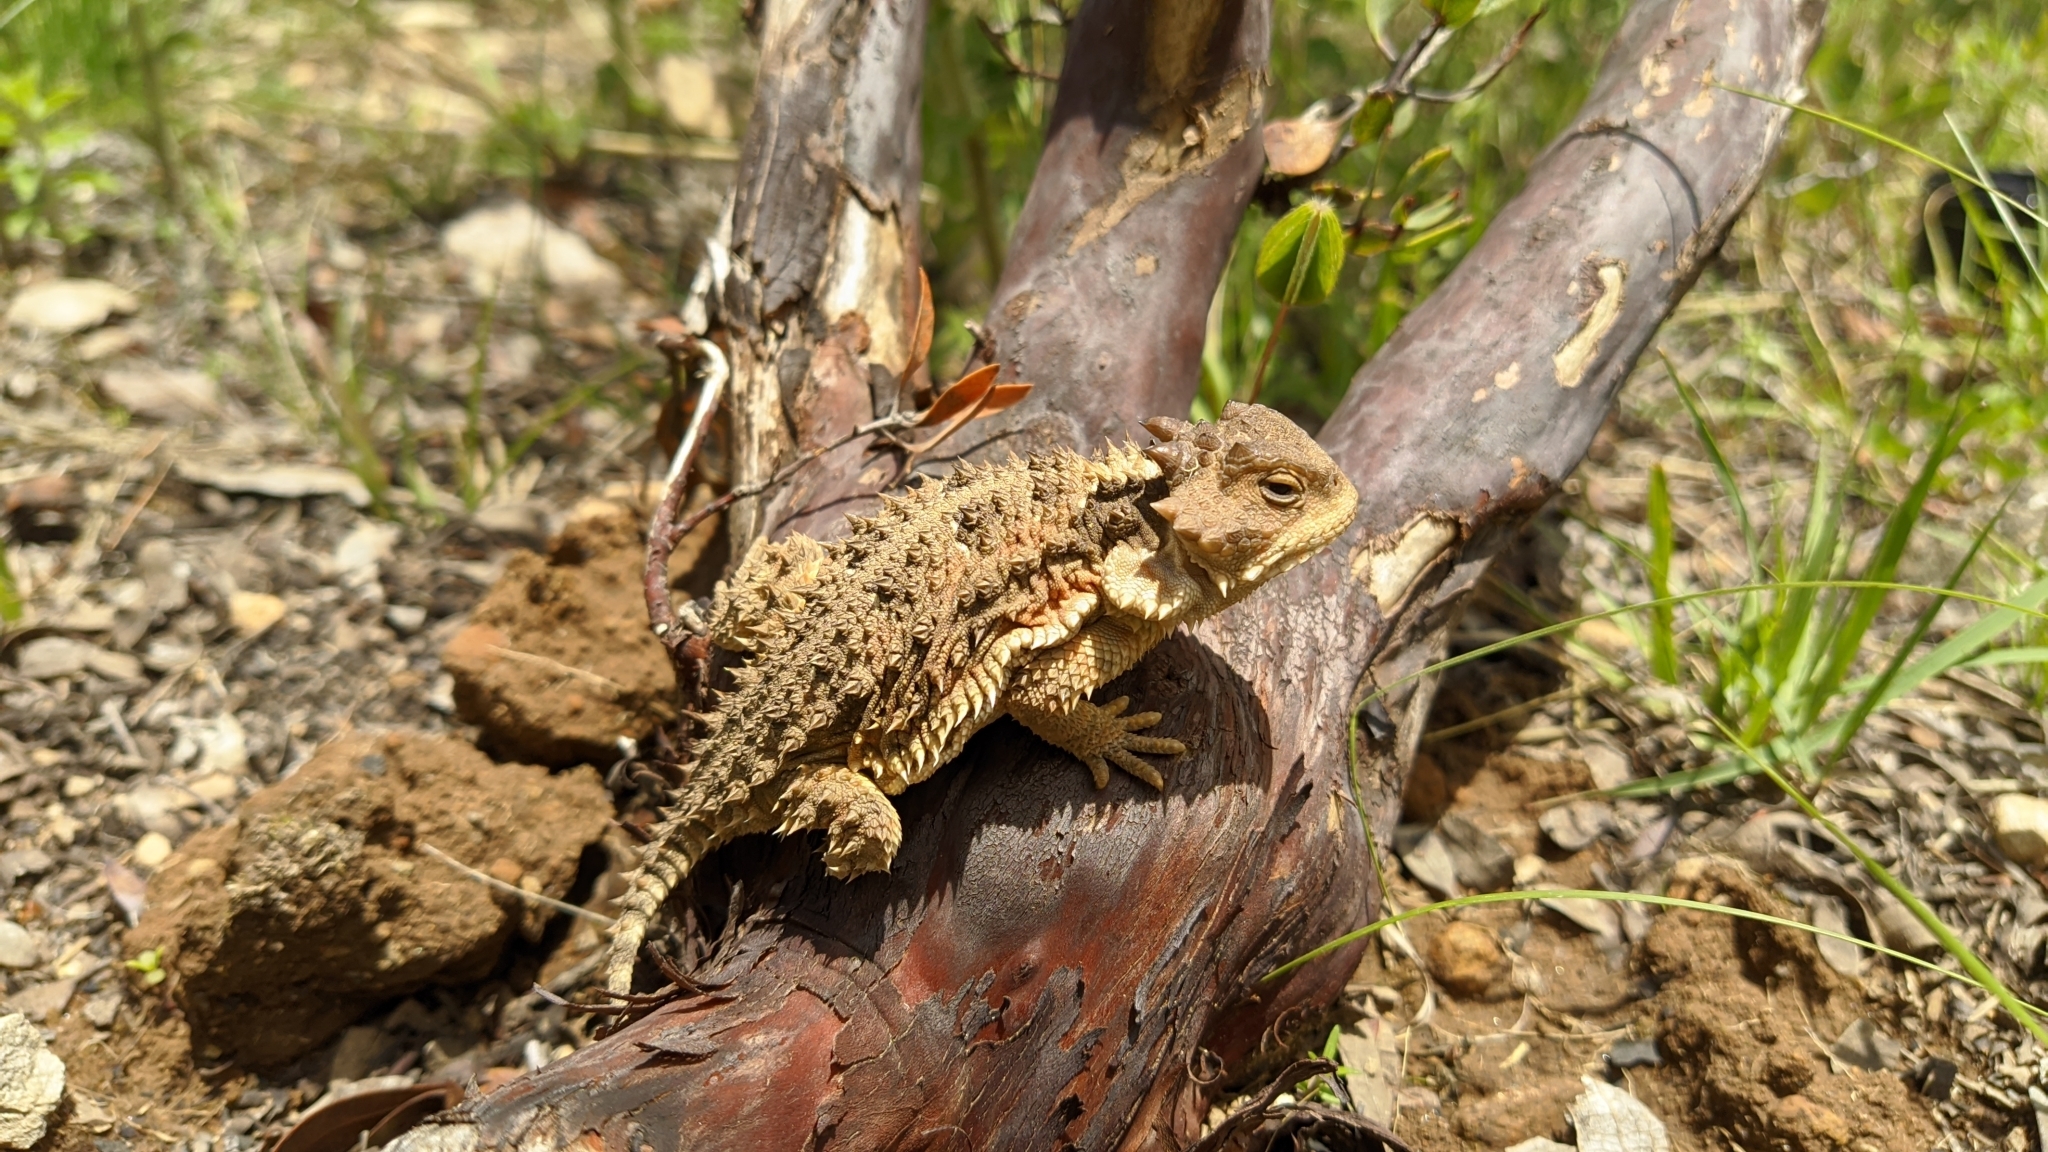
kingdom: Animalia
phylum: Chordata
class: Squamata
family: Phrynosomatidae
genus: Phrynosoma
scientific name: Phrynosoma orbiculare
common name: Mountain horned lizard
